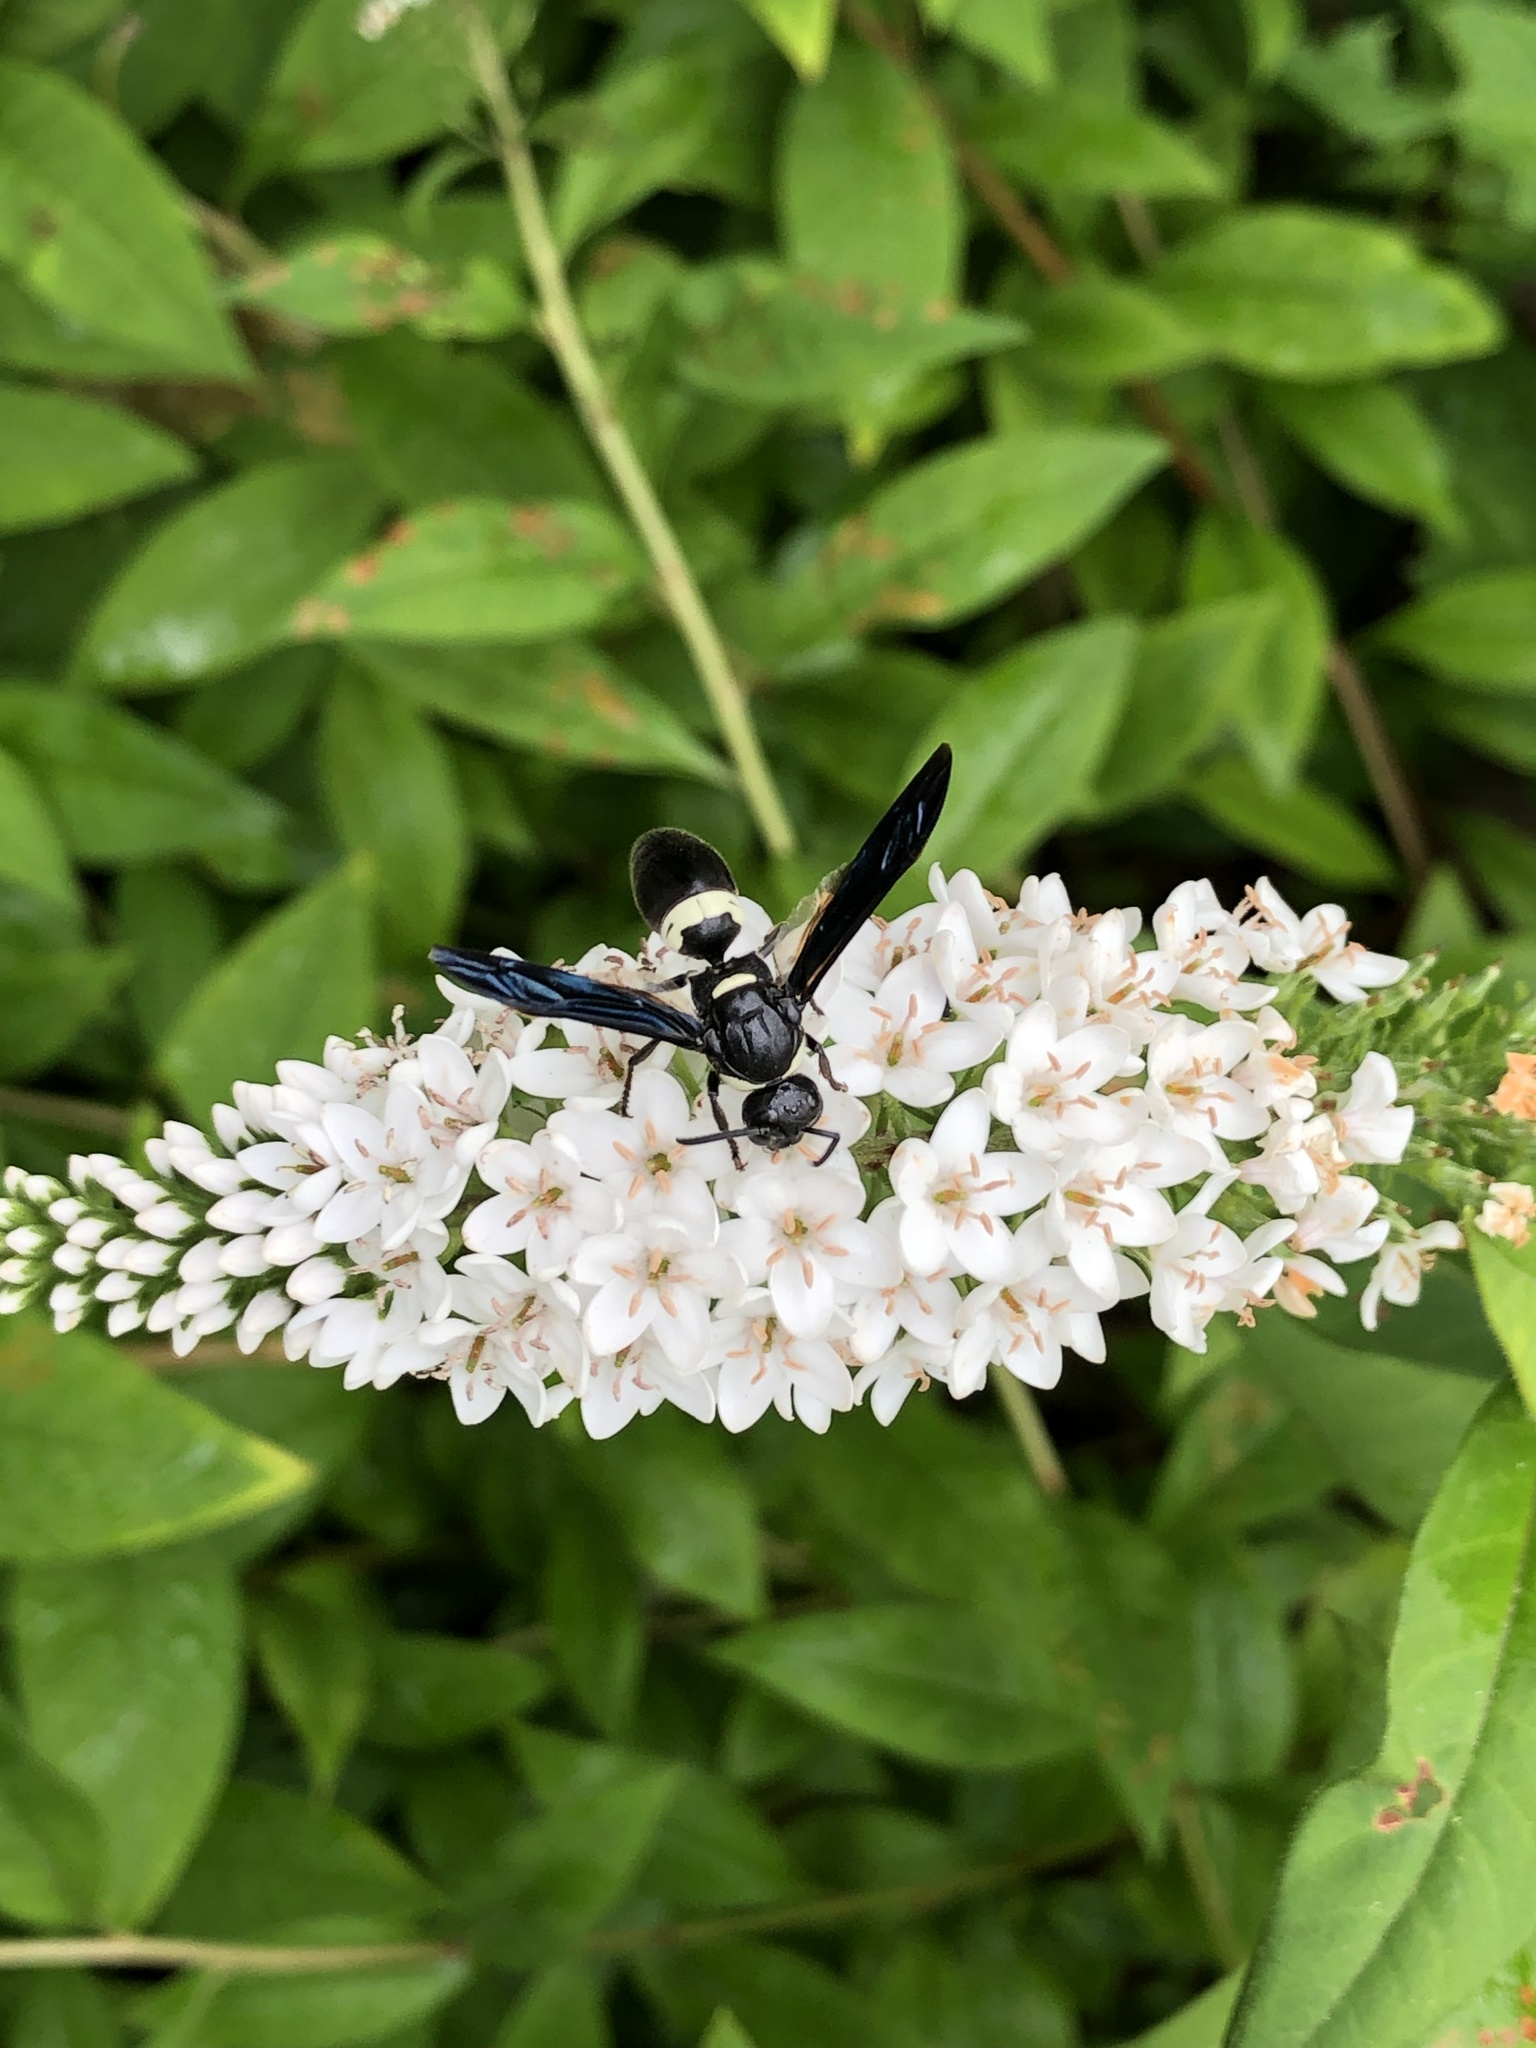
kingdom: Animalia
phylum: Arthropoda
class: Insecta
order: Hymenoptera
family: Eumenidae
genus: Monobia
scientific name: Monobia quadridens
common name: Four-toothed mason wasp
